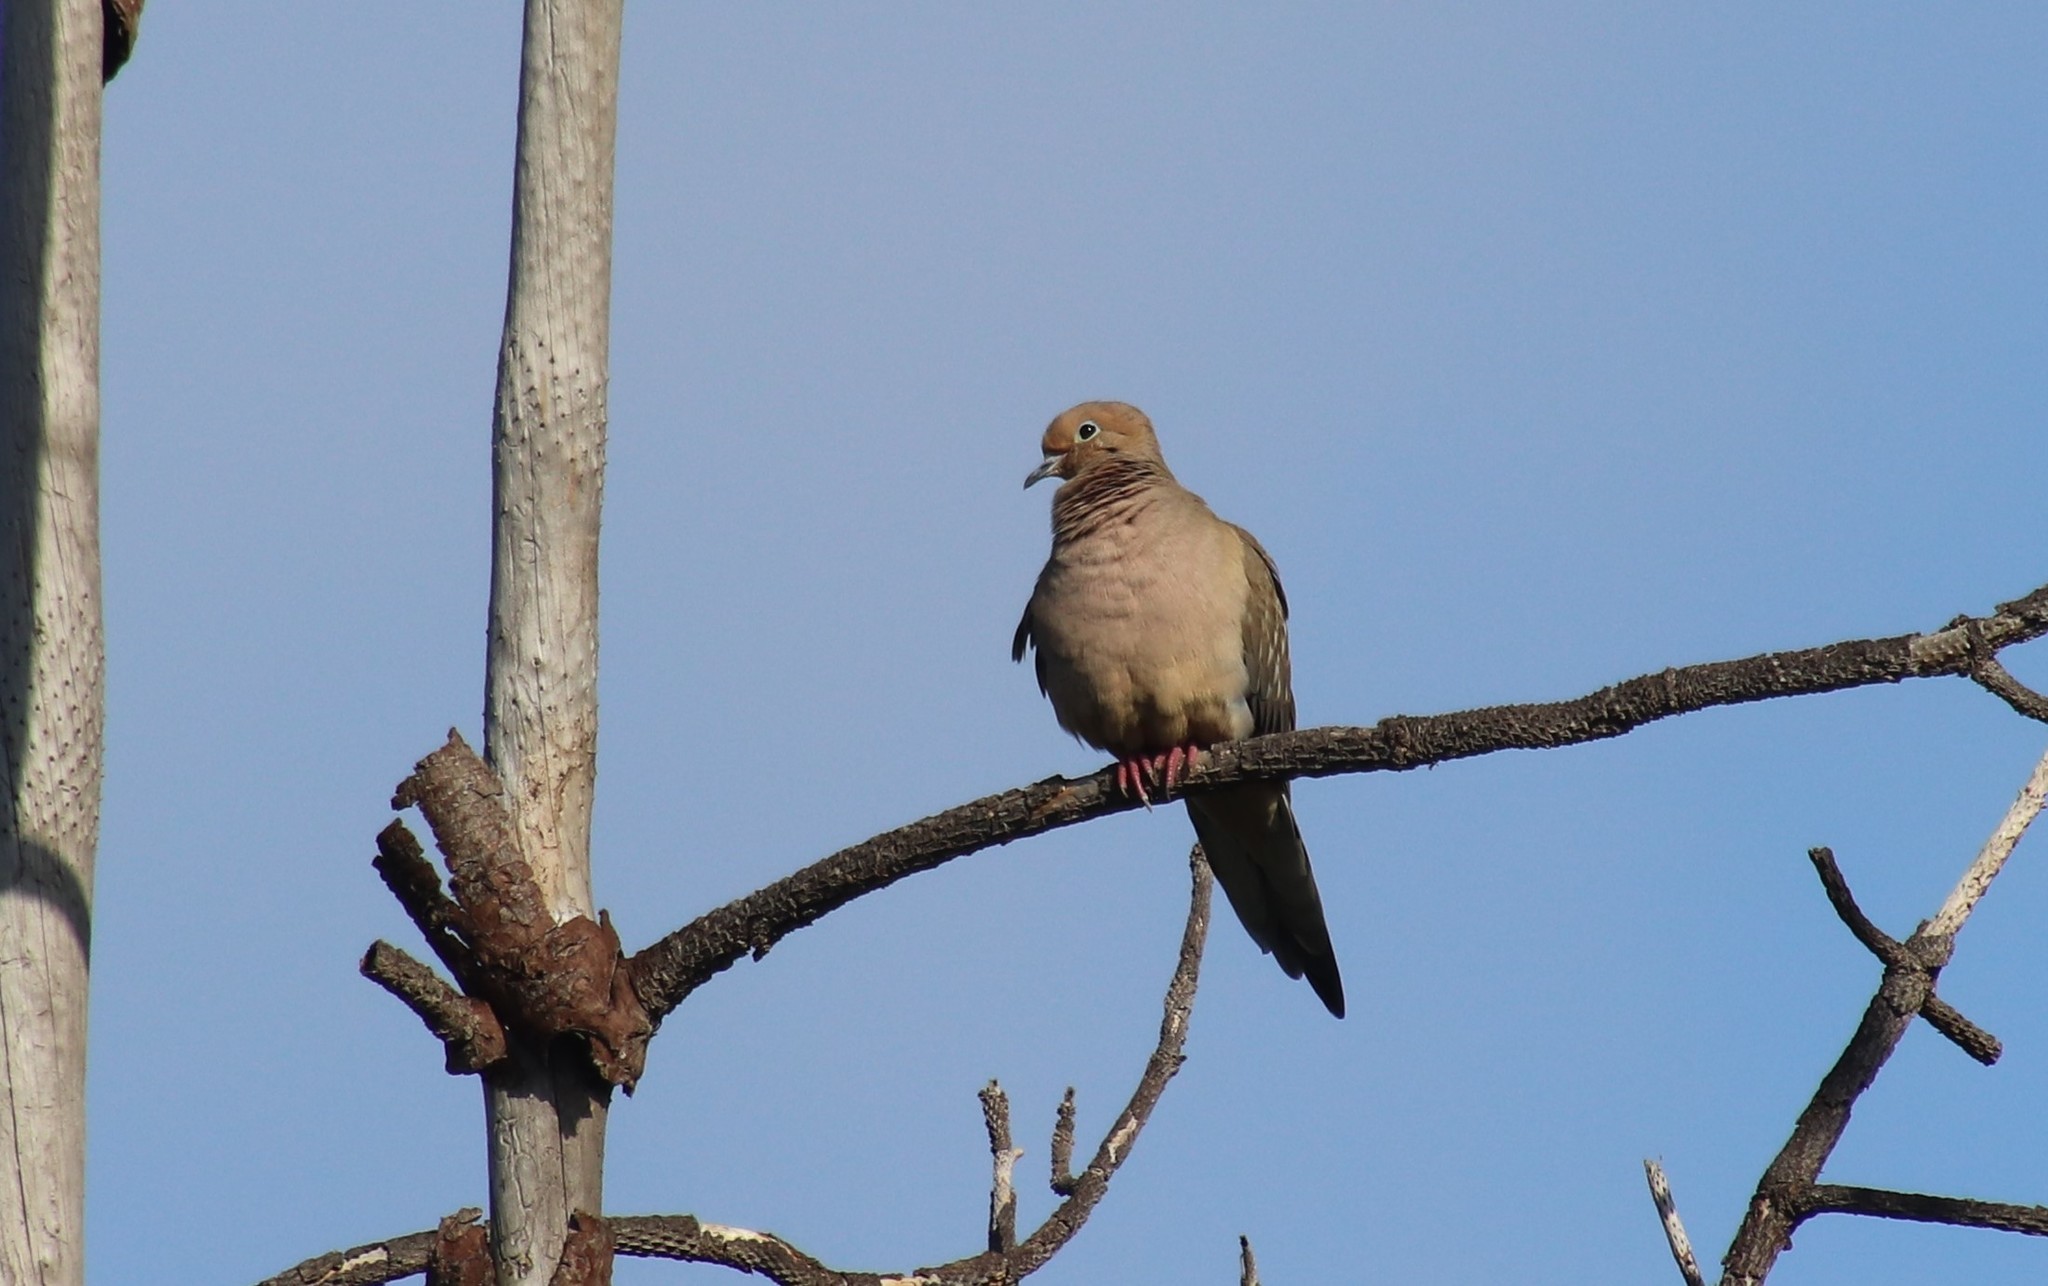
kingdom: Animalia
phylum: Chordata
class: Aves
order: Columbiformes
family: Columbidae
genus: Zenaida
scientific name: Zenaida macroura
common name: Mourning dove
